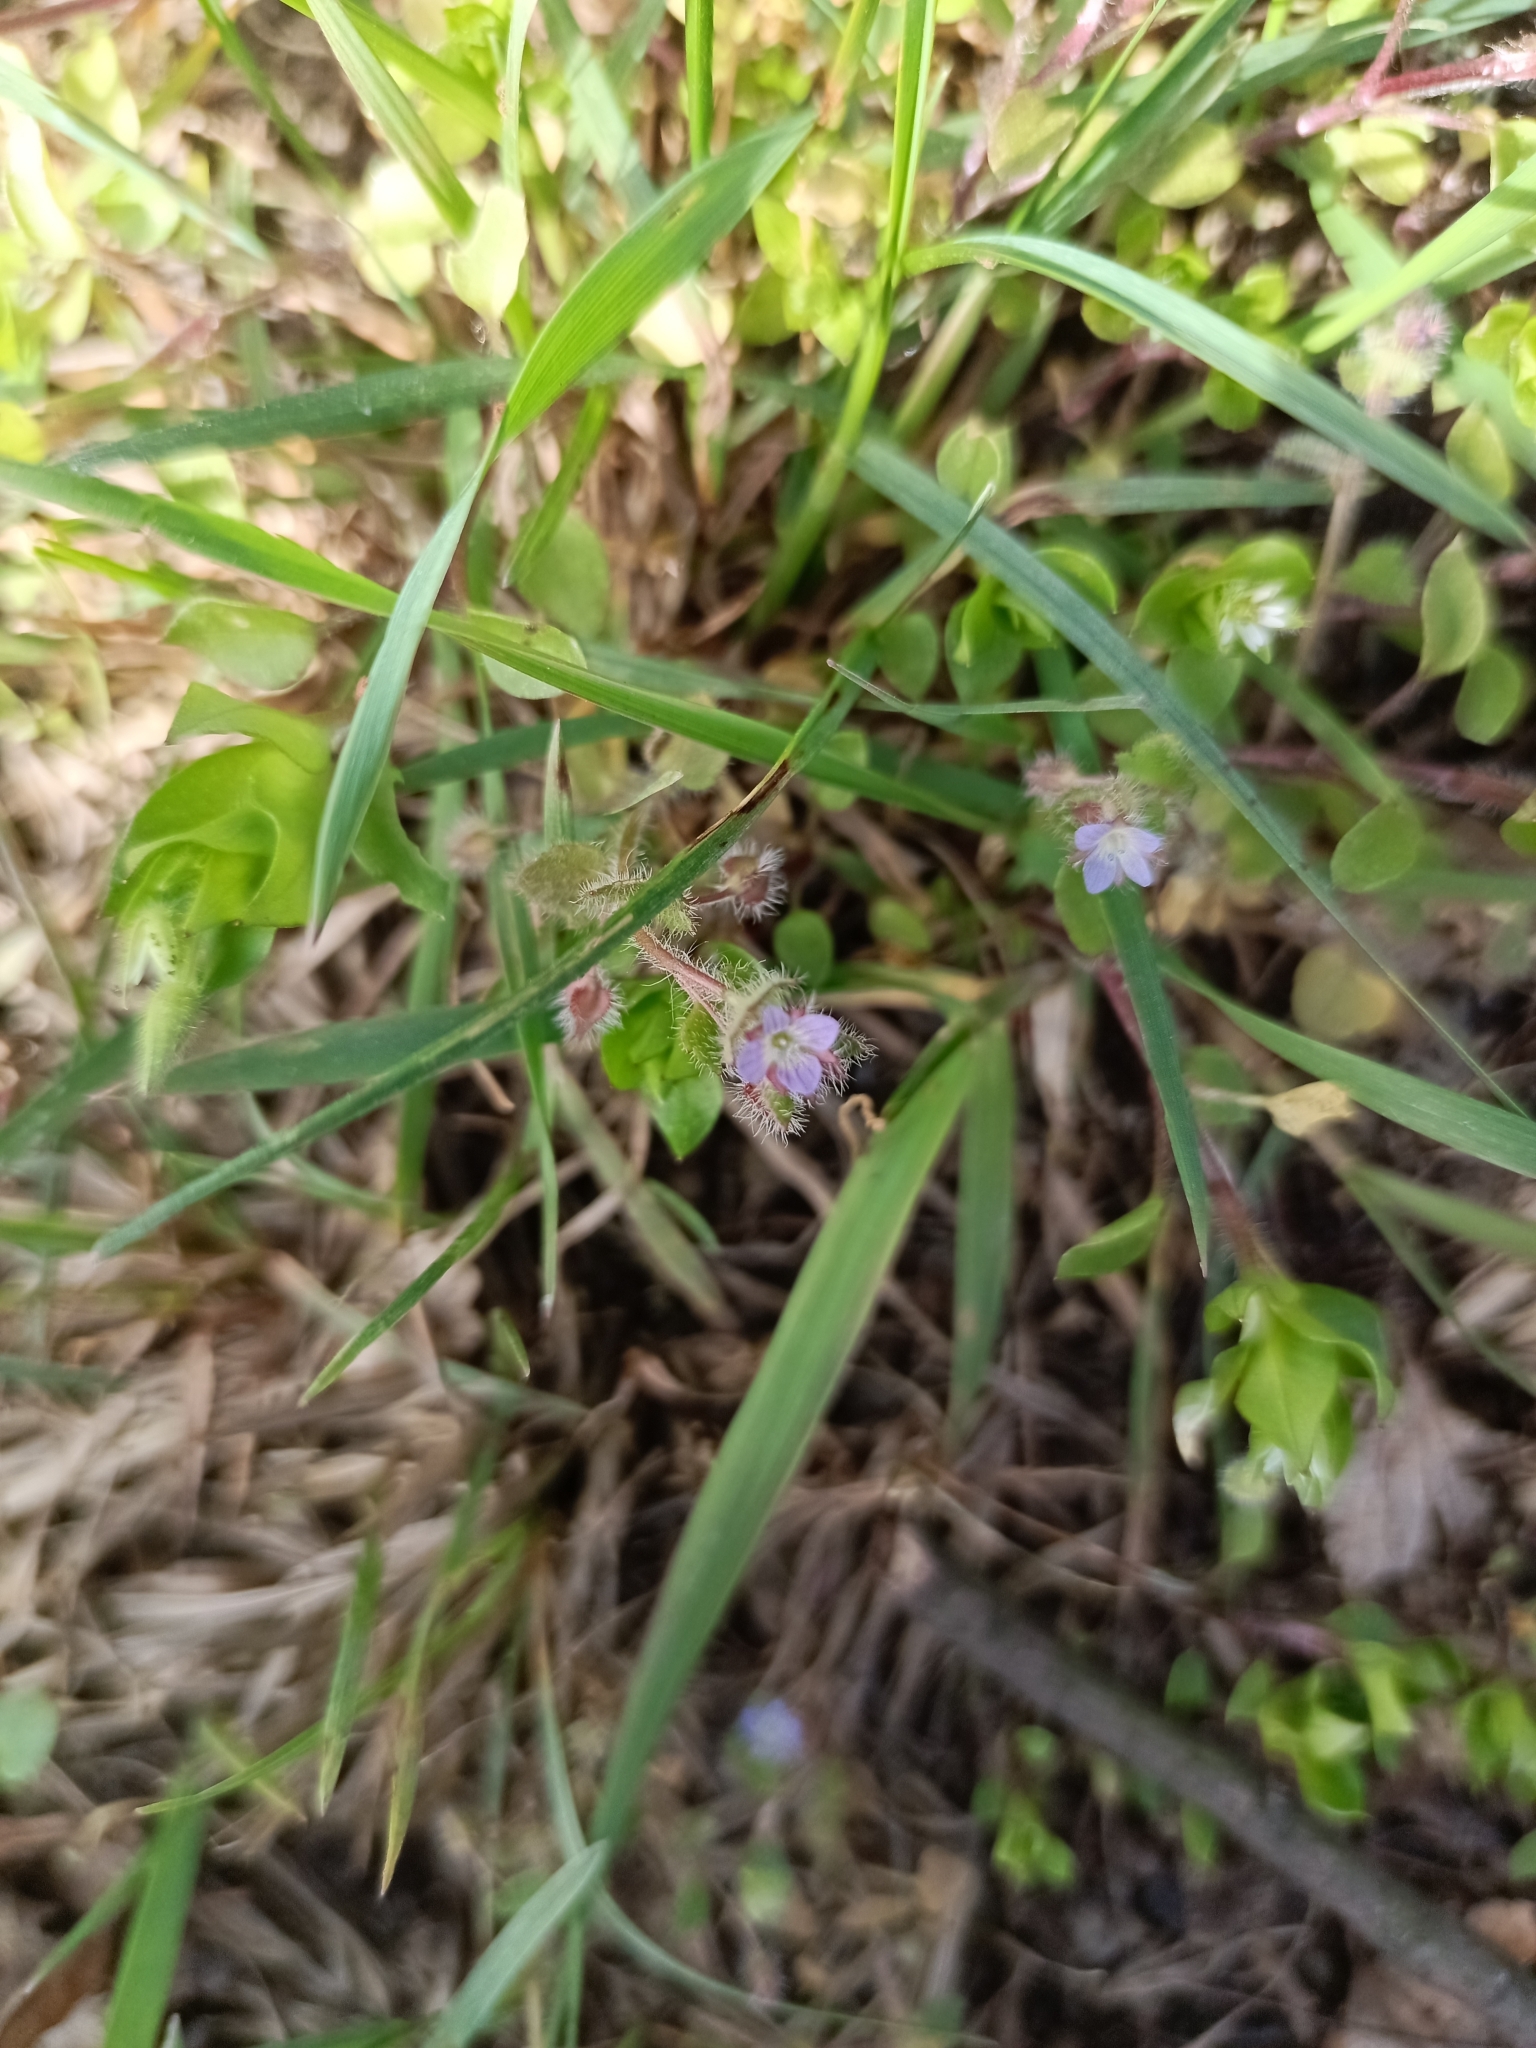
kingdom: Plantae
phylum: Tracheophyta
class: Magnoliopsida
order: Lamiales
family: Plantaginaceae
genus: Veronica
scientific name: Veronica sublobata
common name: False ivy-leaved speedwell
